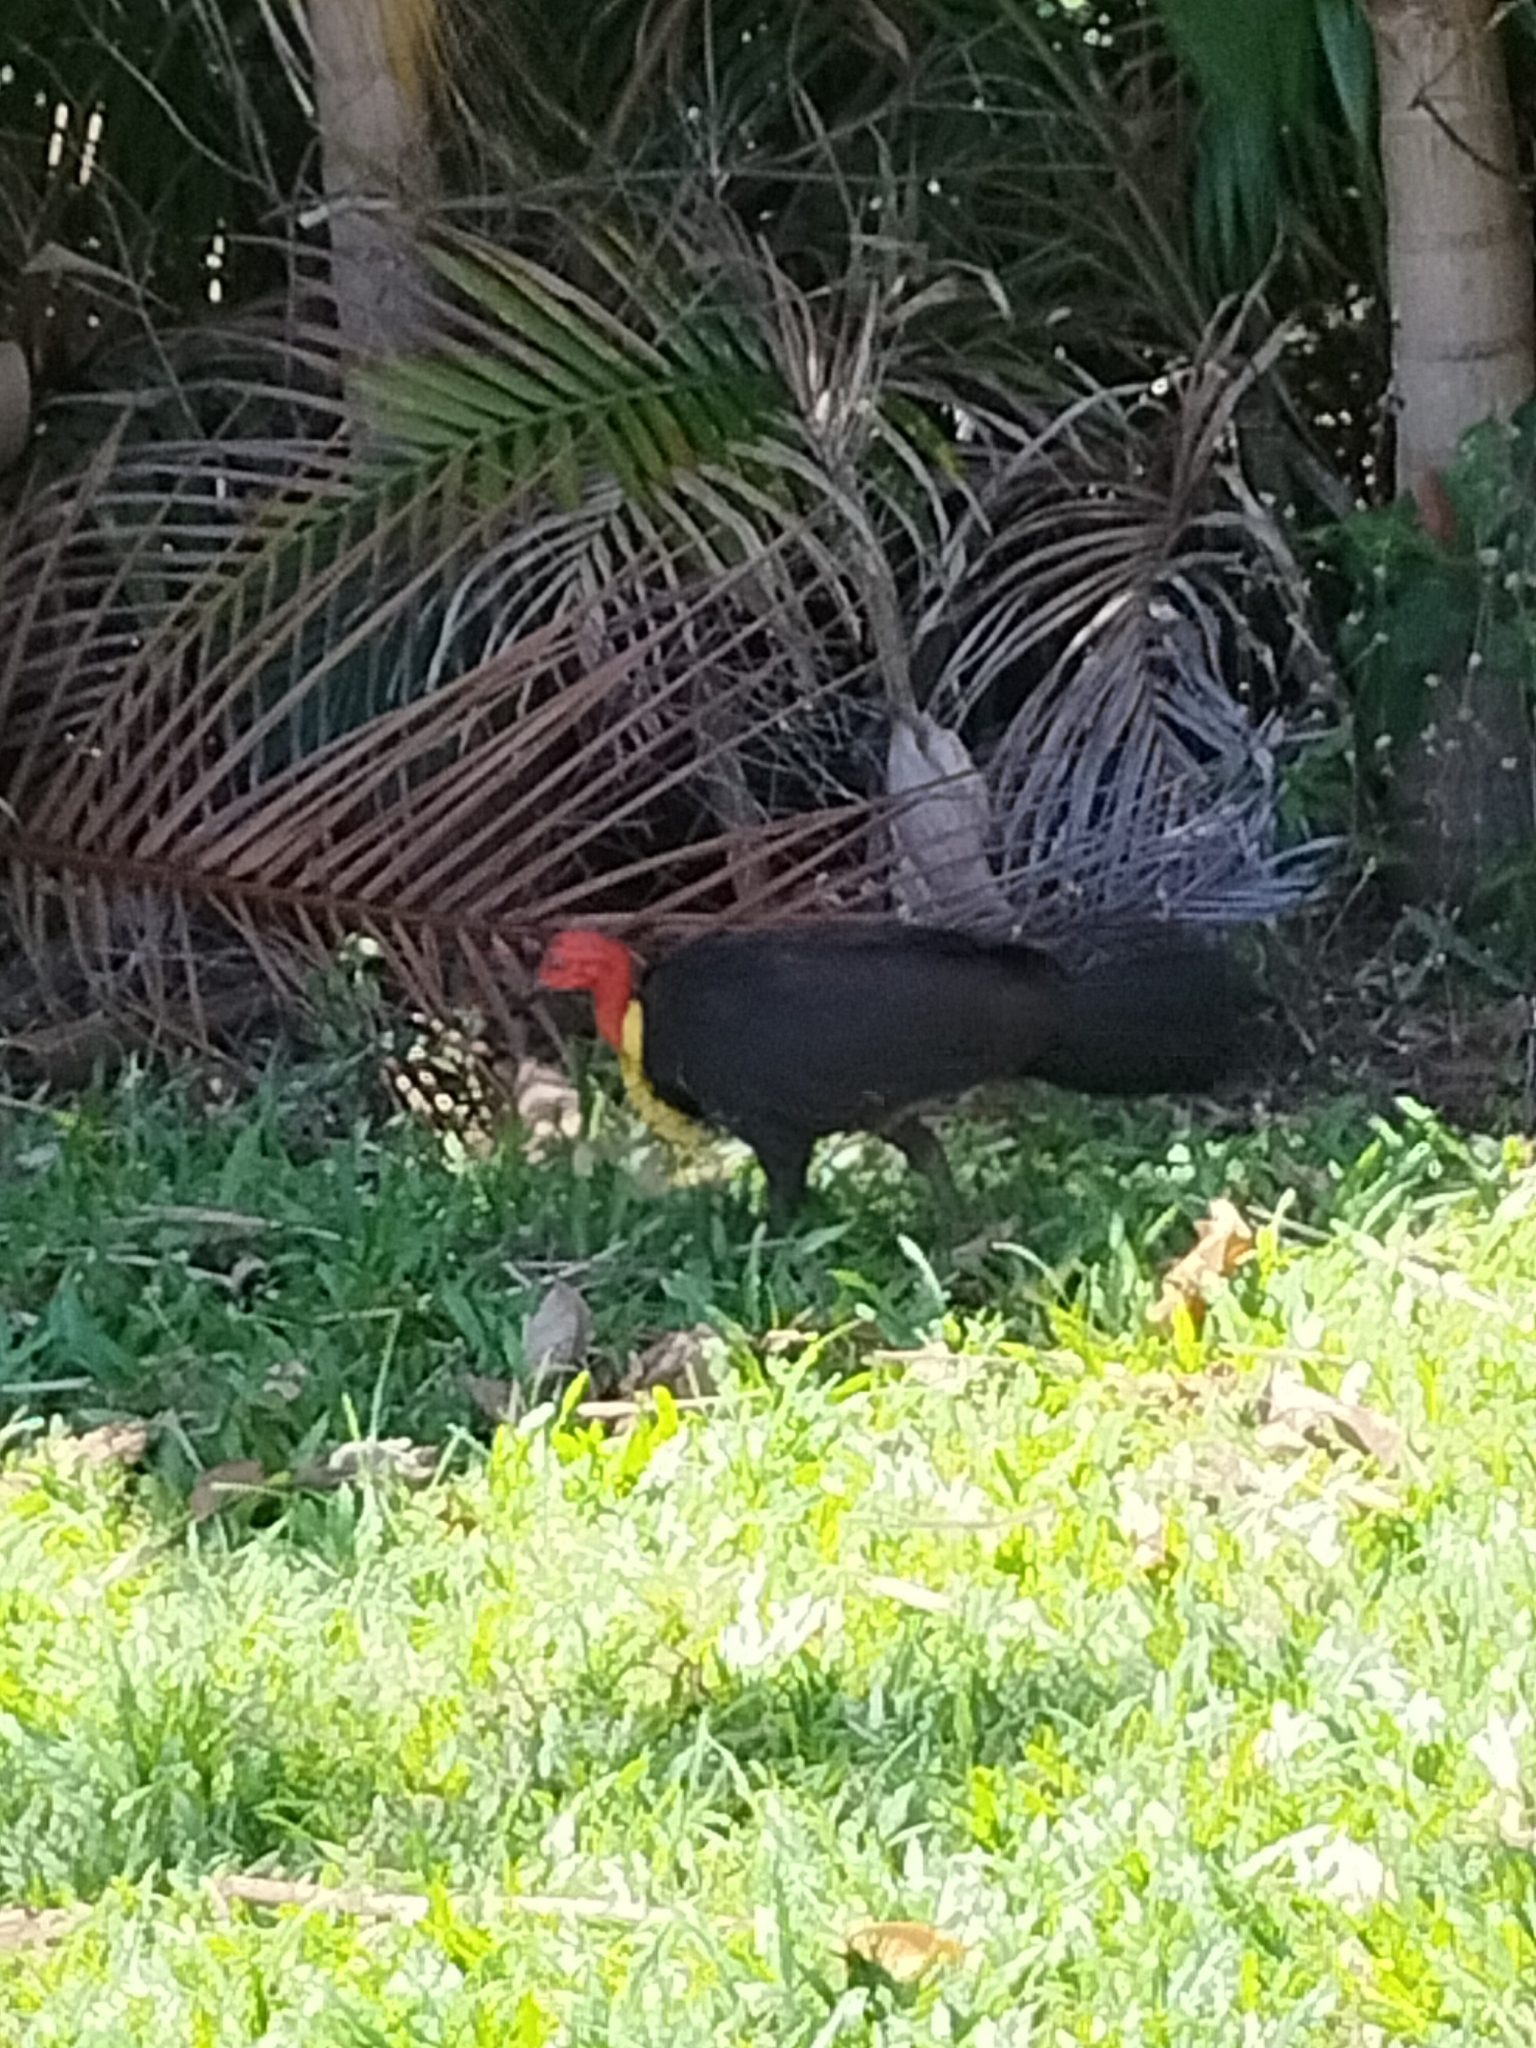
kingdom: Animalia
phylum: Chordata
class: Aves
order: Galliformes
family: Megapodiidae
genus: Alectura
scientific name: Alectura lathami
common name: Australian brushturkey
